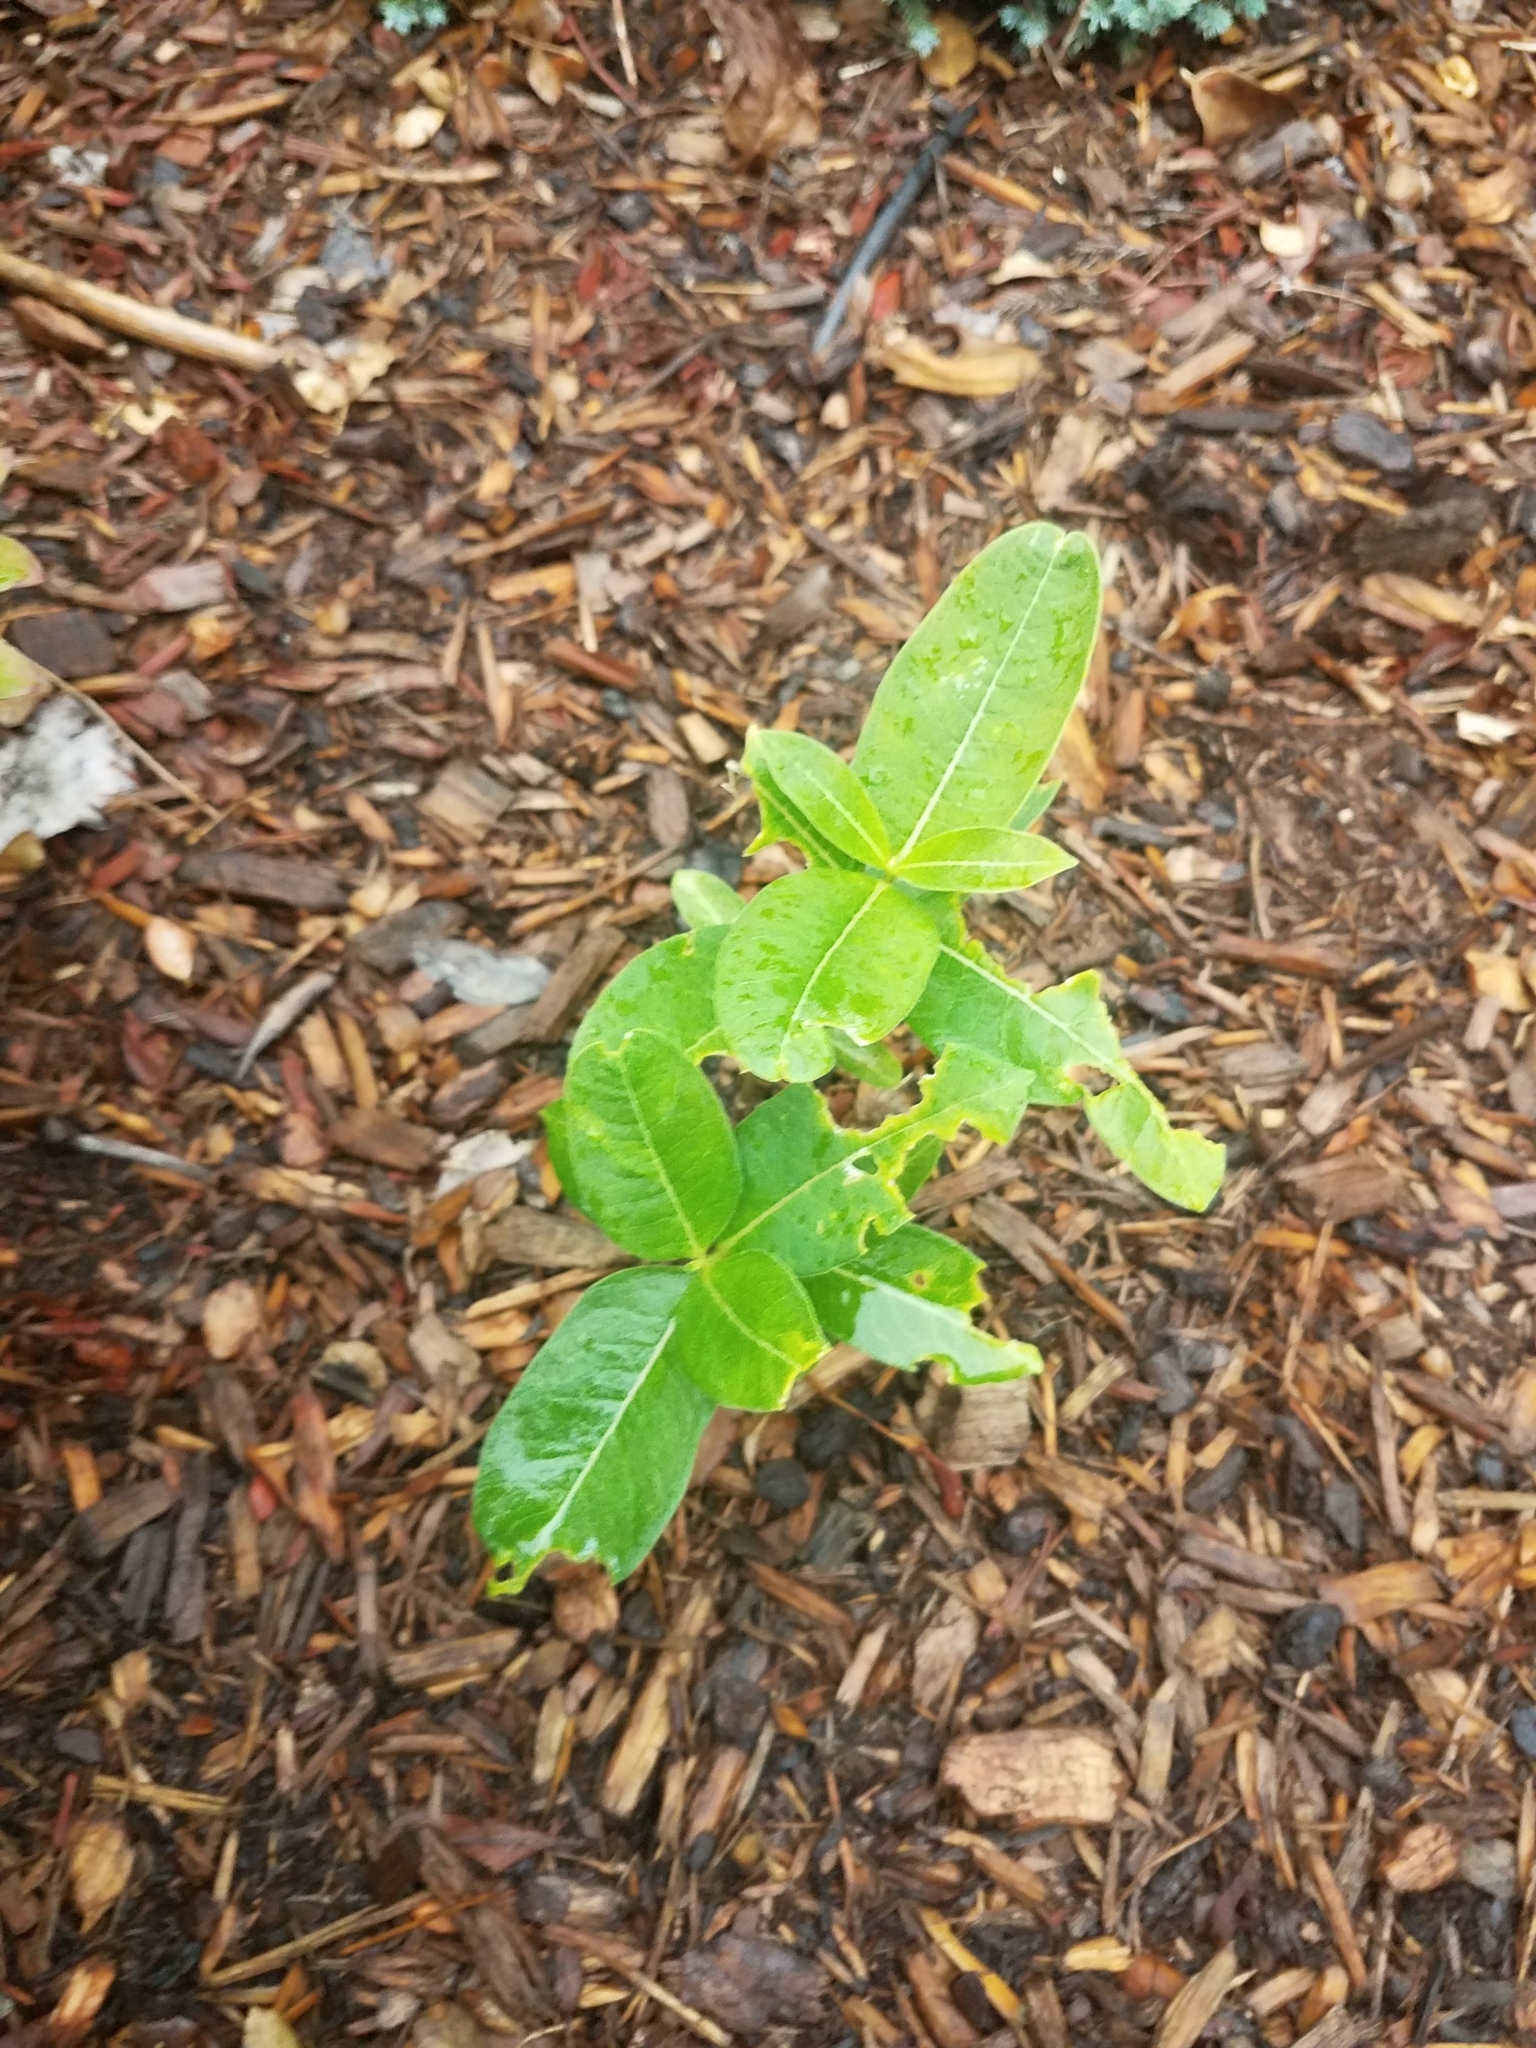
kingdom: Plantae
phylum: Tracheophyta
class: Magnoliopsida
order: Gentianales
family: Apocynaceae
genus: Asclepias
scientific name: Asclepias syriaca
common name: Common milkweed
